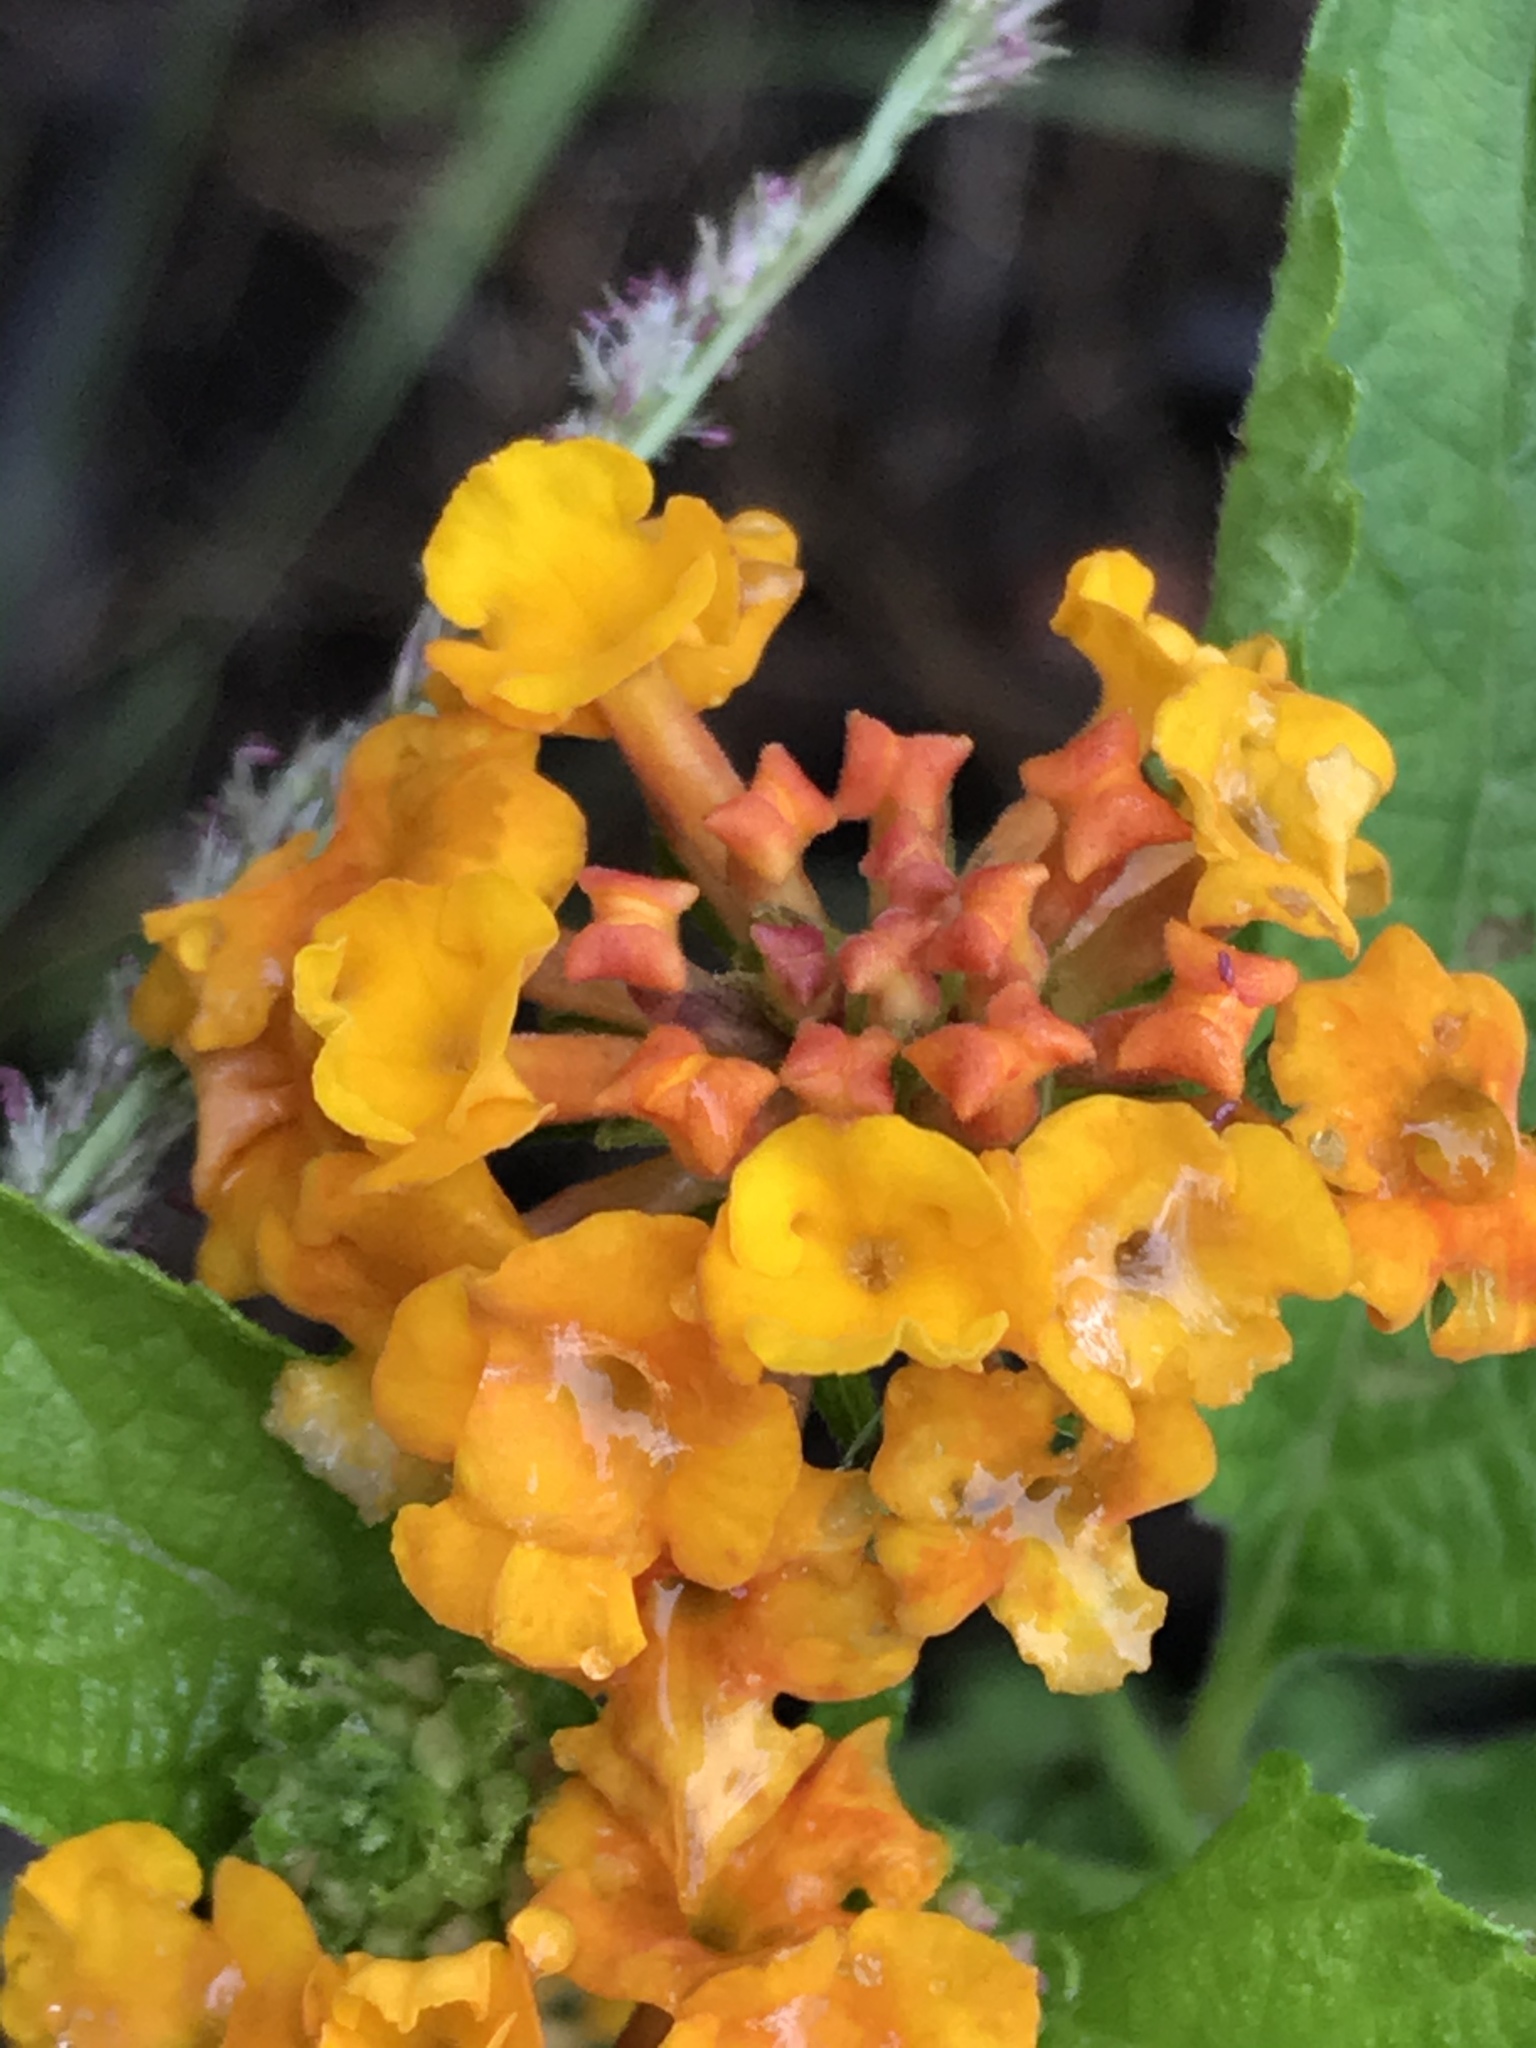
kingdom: Plantae
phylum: Tracheophyta
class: Magnoliopsida
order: Lamiales
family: Verbenaceae
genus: Lantana
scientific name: Lantana urticoides
